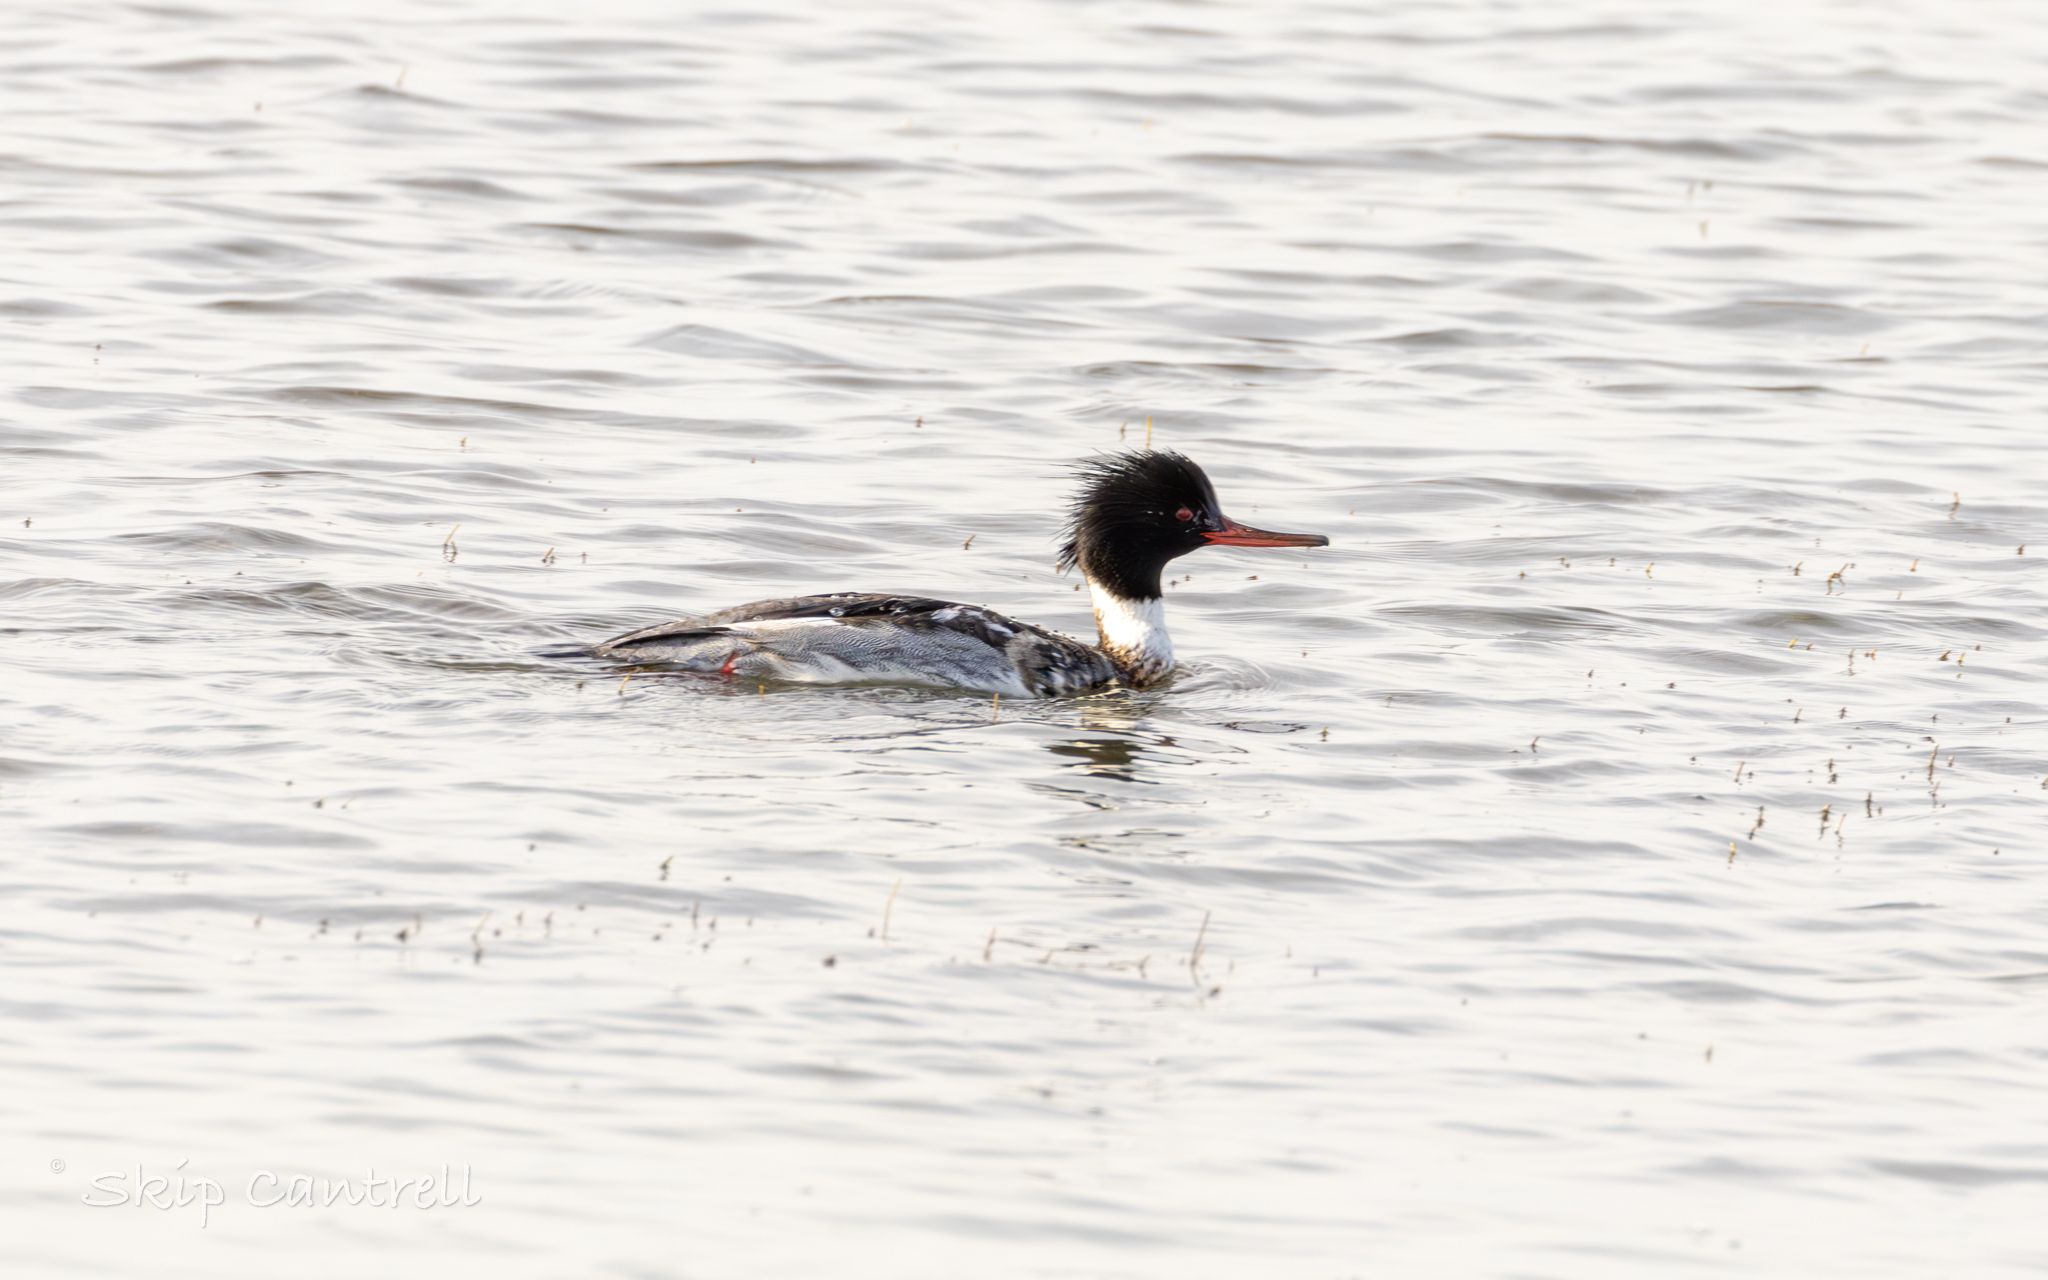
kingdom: Animalia
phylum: Chordata
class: Aves
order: Anseriformes
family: Anatidae
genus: Mergus
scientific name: Mergus serrator
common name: Red-breasted merganser
